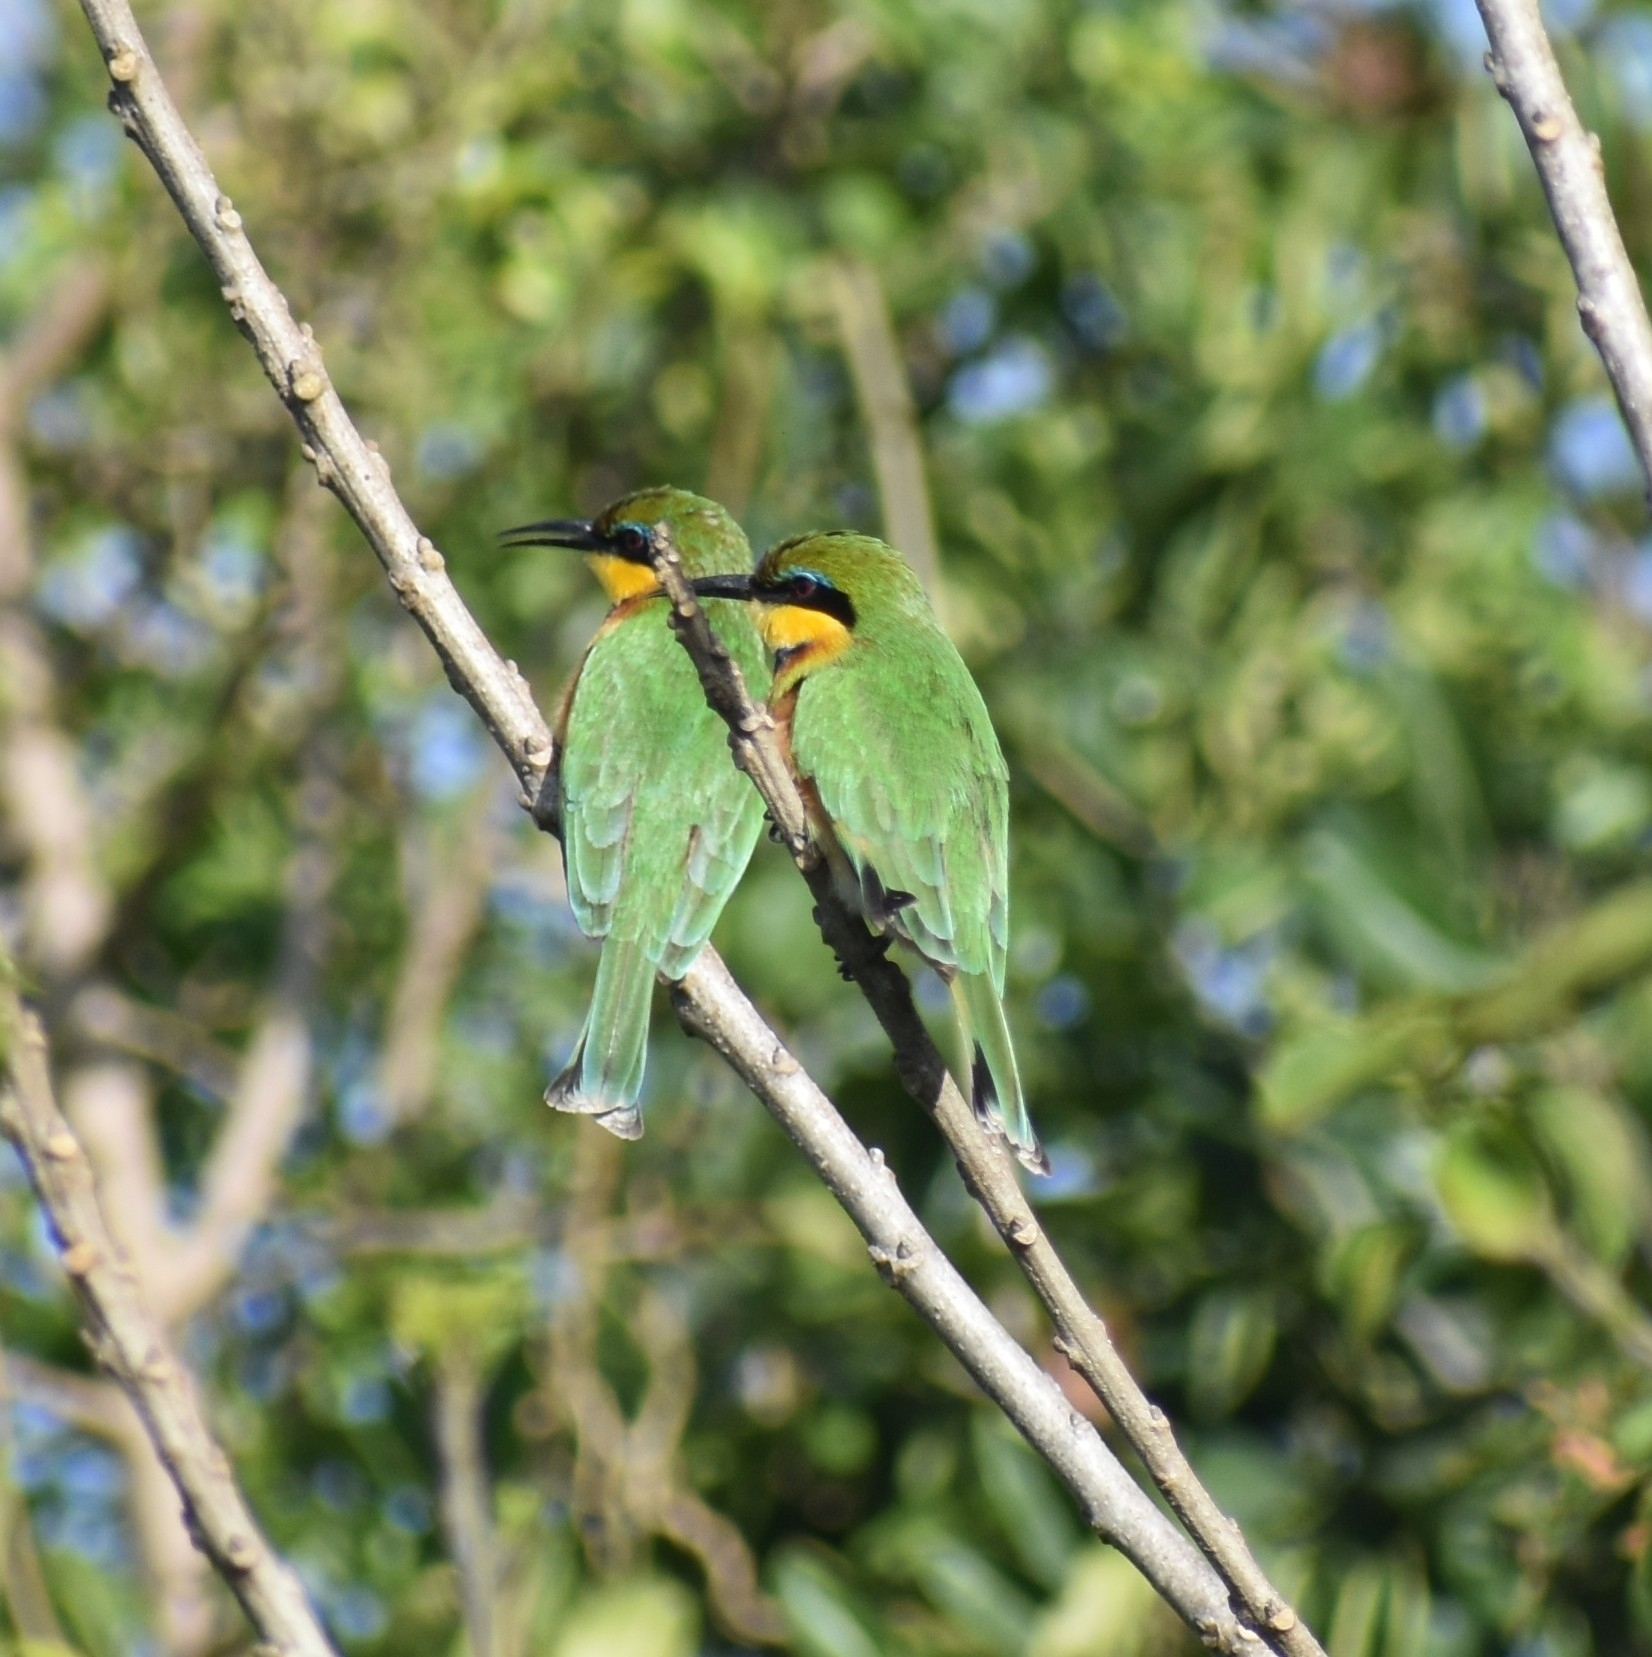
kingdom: Animalia
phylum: Chordata
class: Aves
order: Coraciiformes
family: Meropidae
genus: Merops
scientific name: Merops pusillus
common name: Little bee-eater
